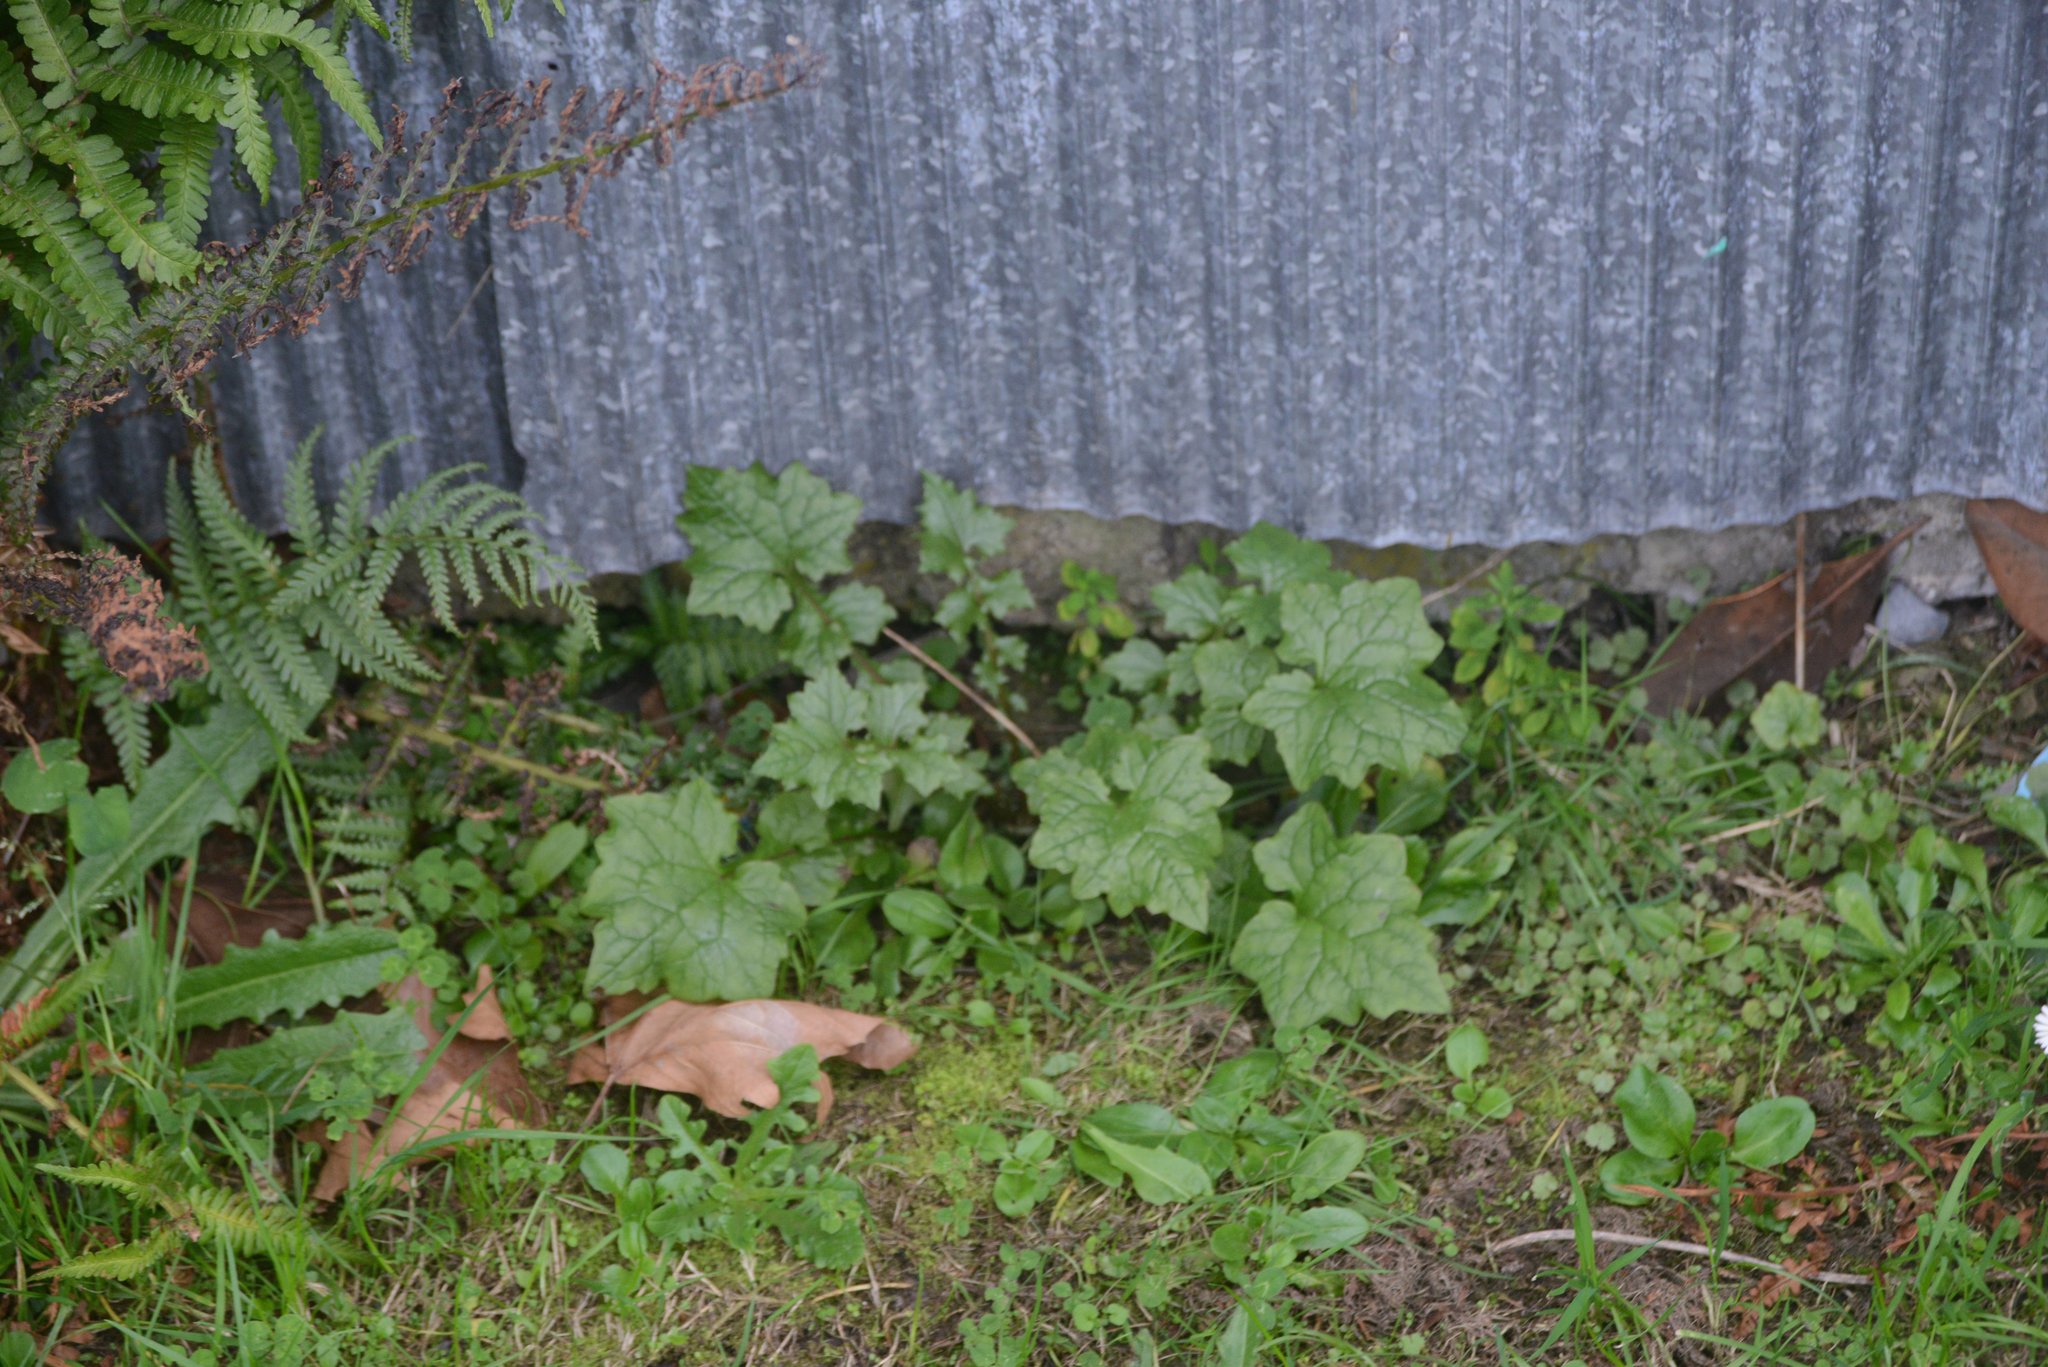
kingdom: Plantae
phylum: Tracheophyta
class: Magnoliopsida
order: Asterales
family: Asteraceae
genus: Mycelis
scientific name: Mycelis muralis
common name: Wall lettuce
